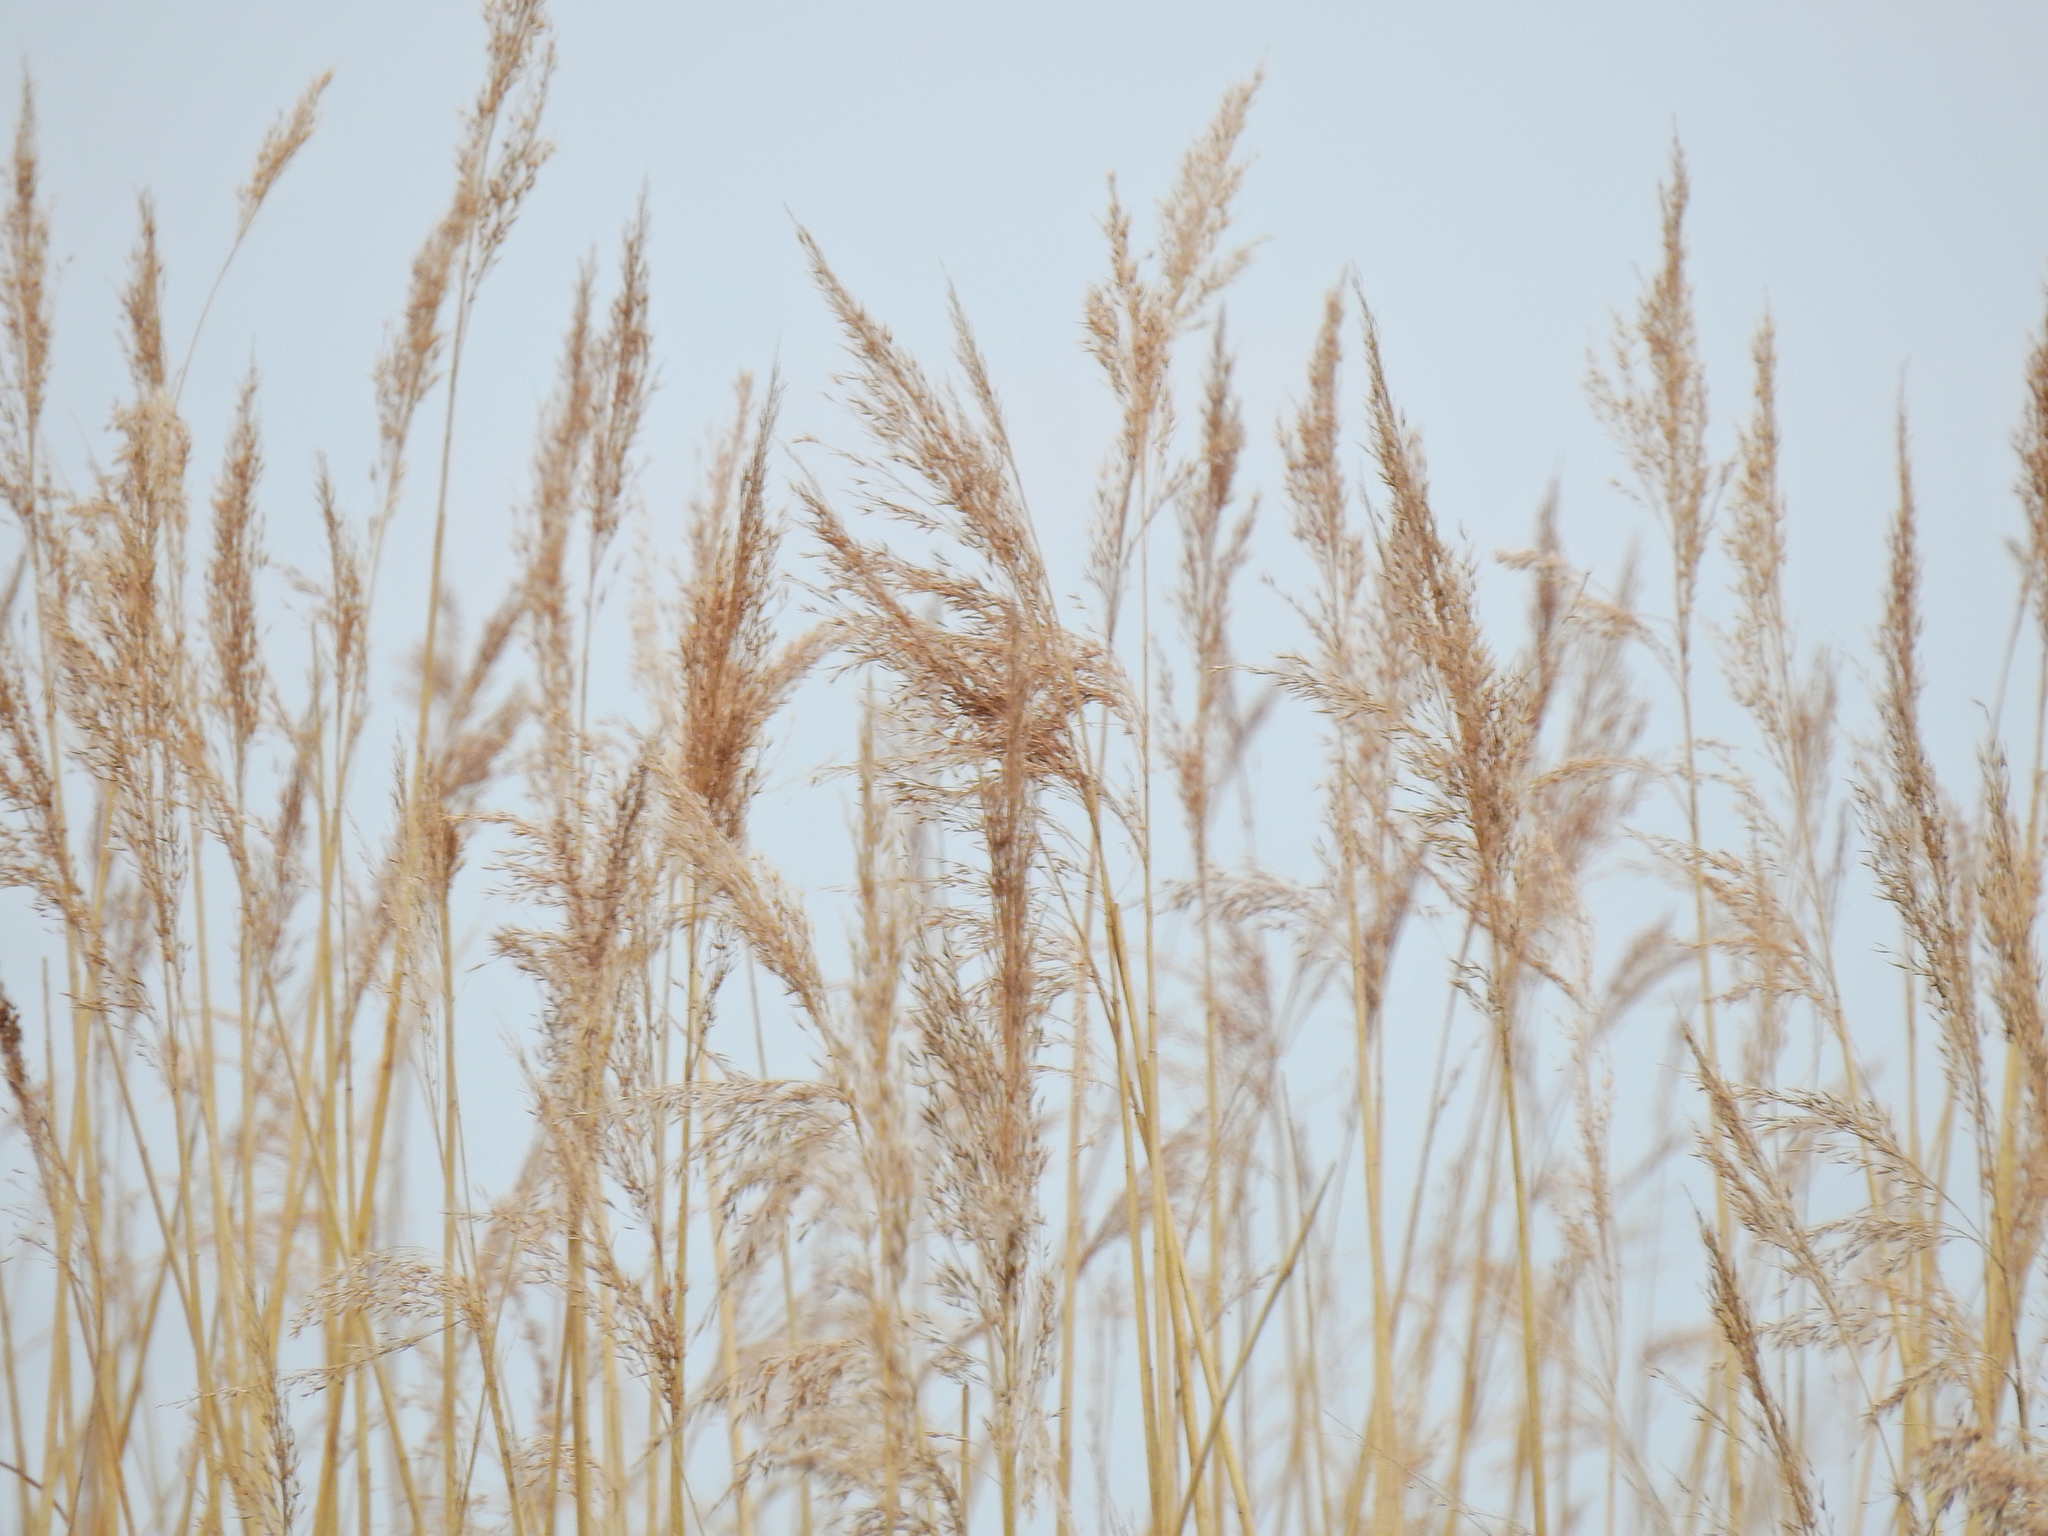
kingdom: Plantae
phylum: Tracheophyta
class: Liliopsida
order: Poales
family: Poaceae
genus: Phragmites
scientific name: Phragmites australis
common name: Common reed
